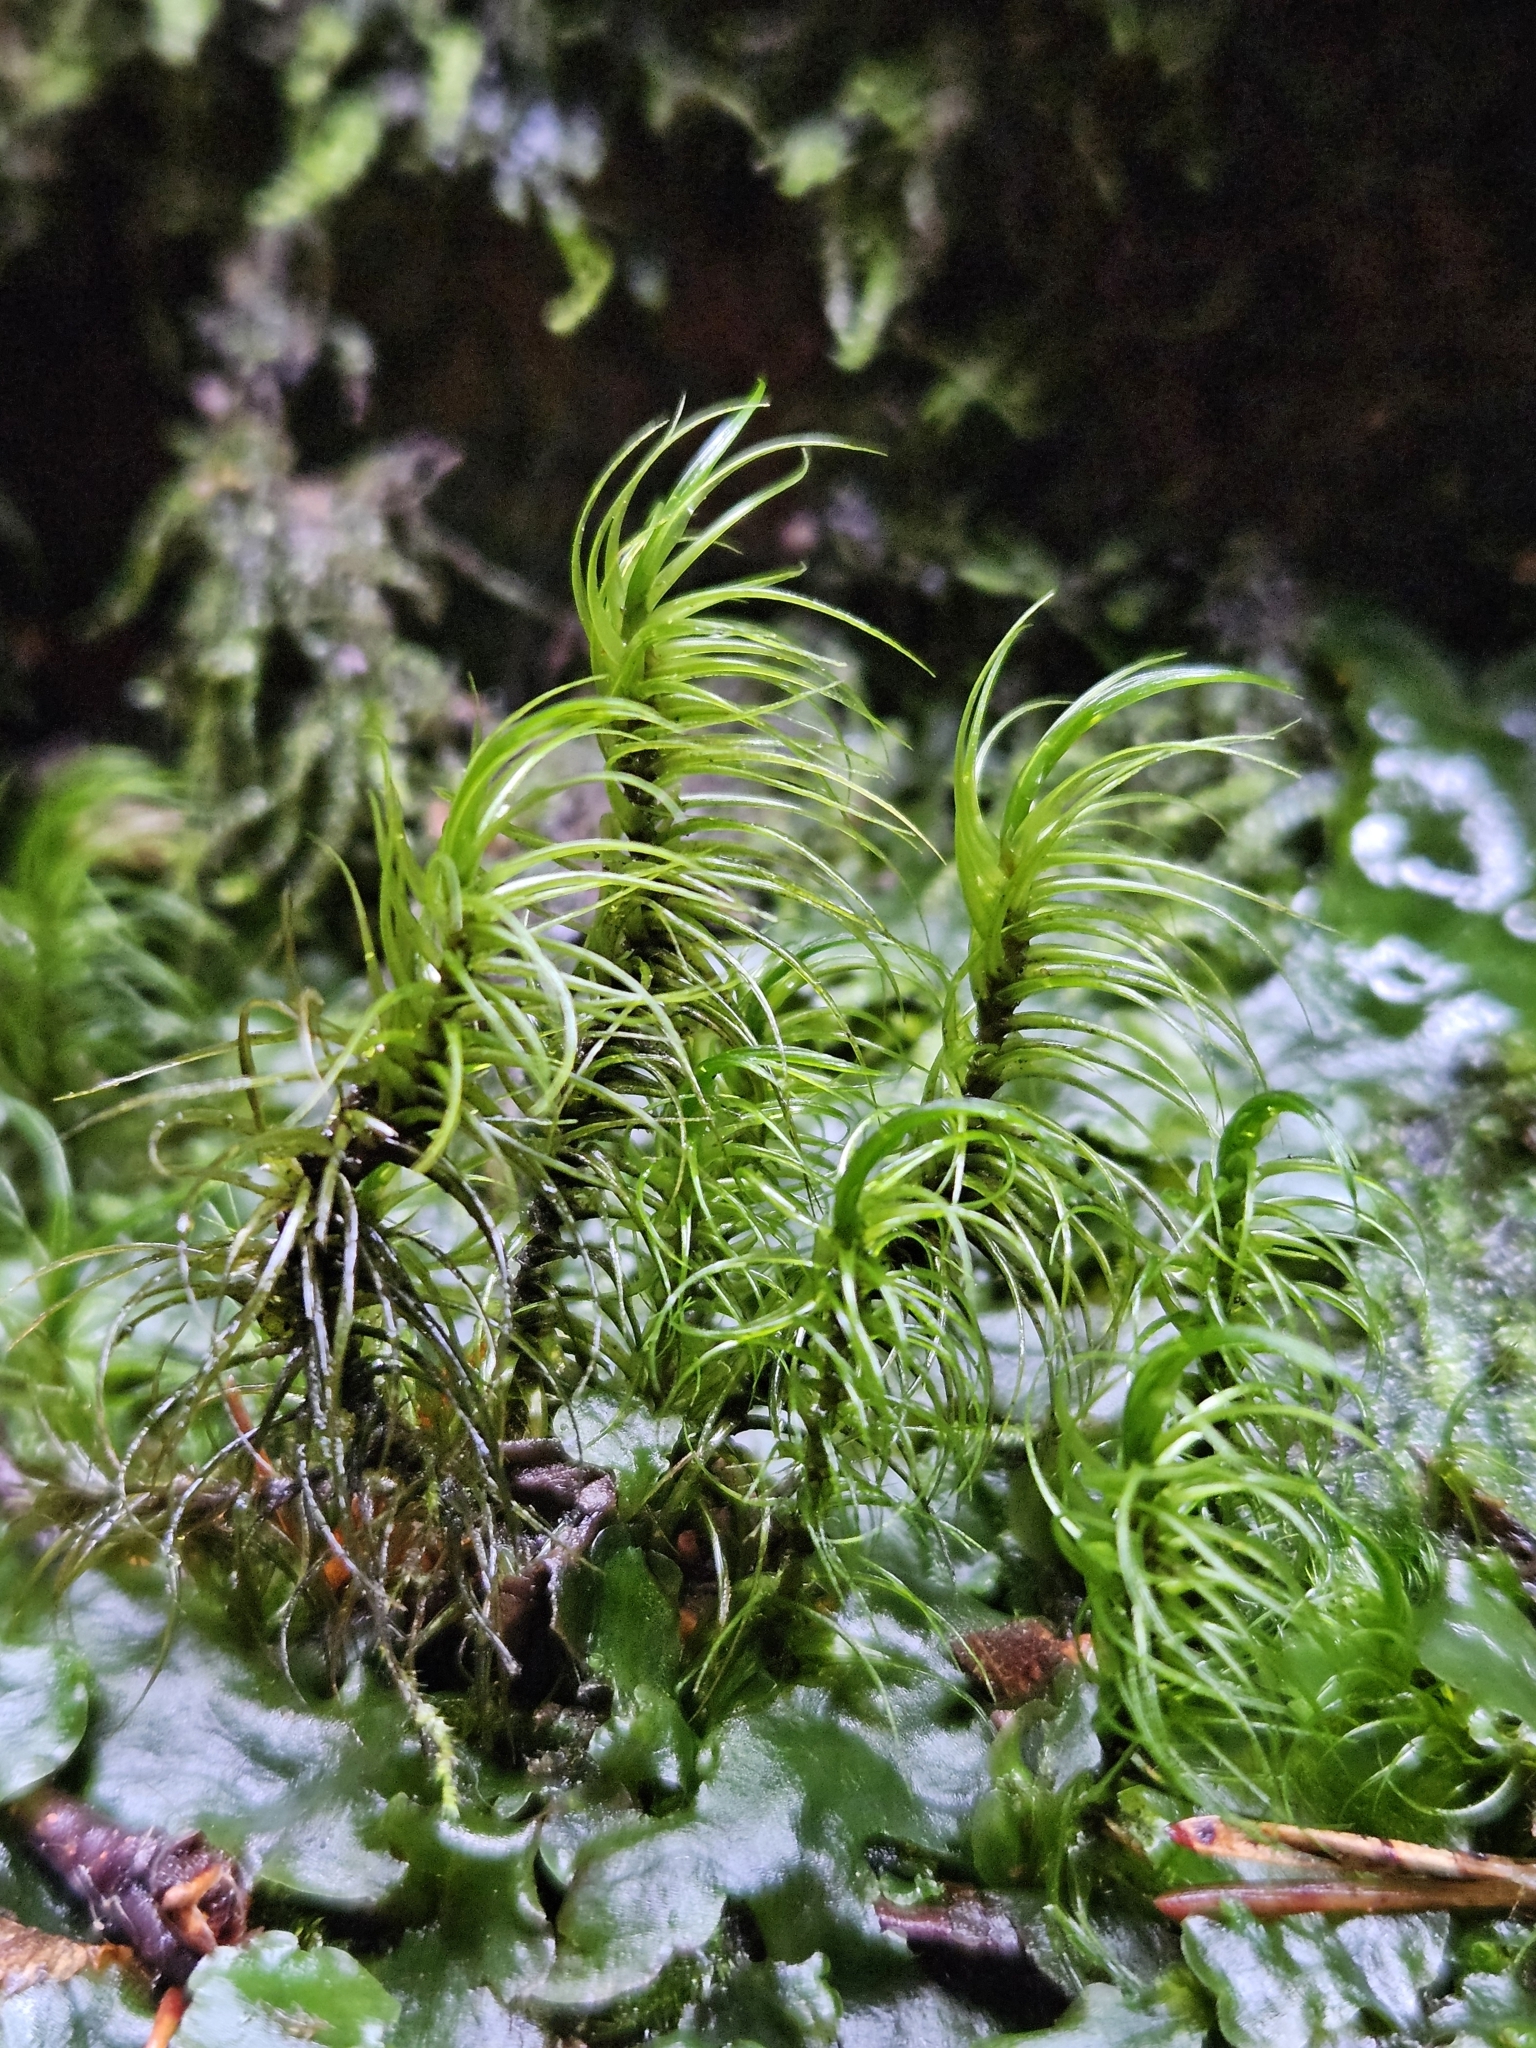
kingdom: Plantae
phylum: Bryophyta
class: Bryopsida
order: Dicranales
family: Dicranaceae
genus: Dicranum
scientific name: Dicranum majus
